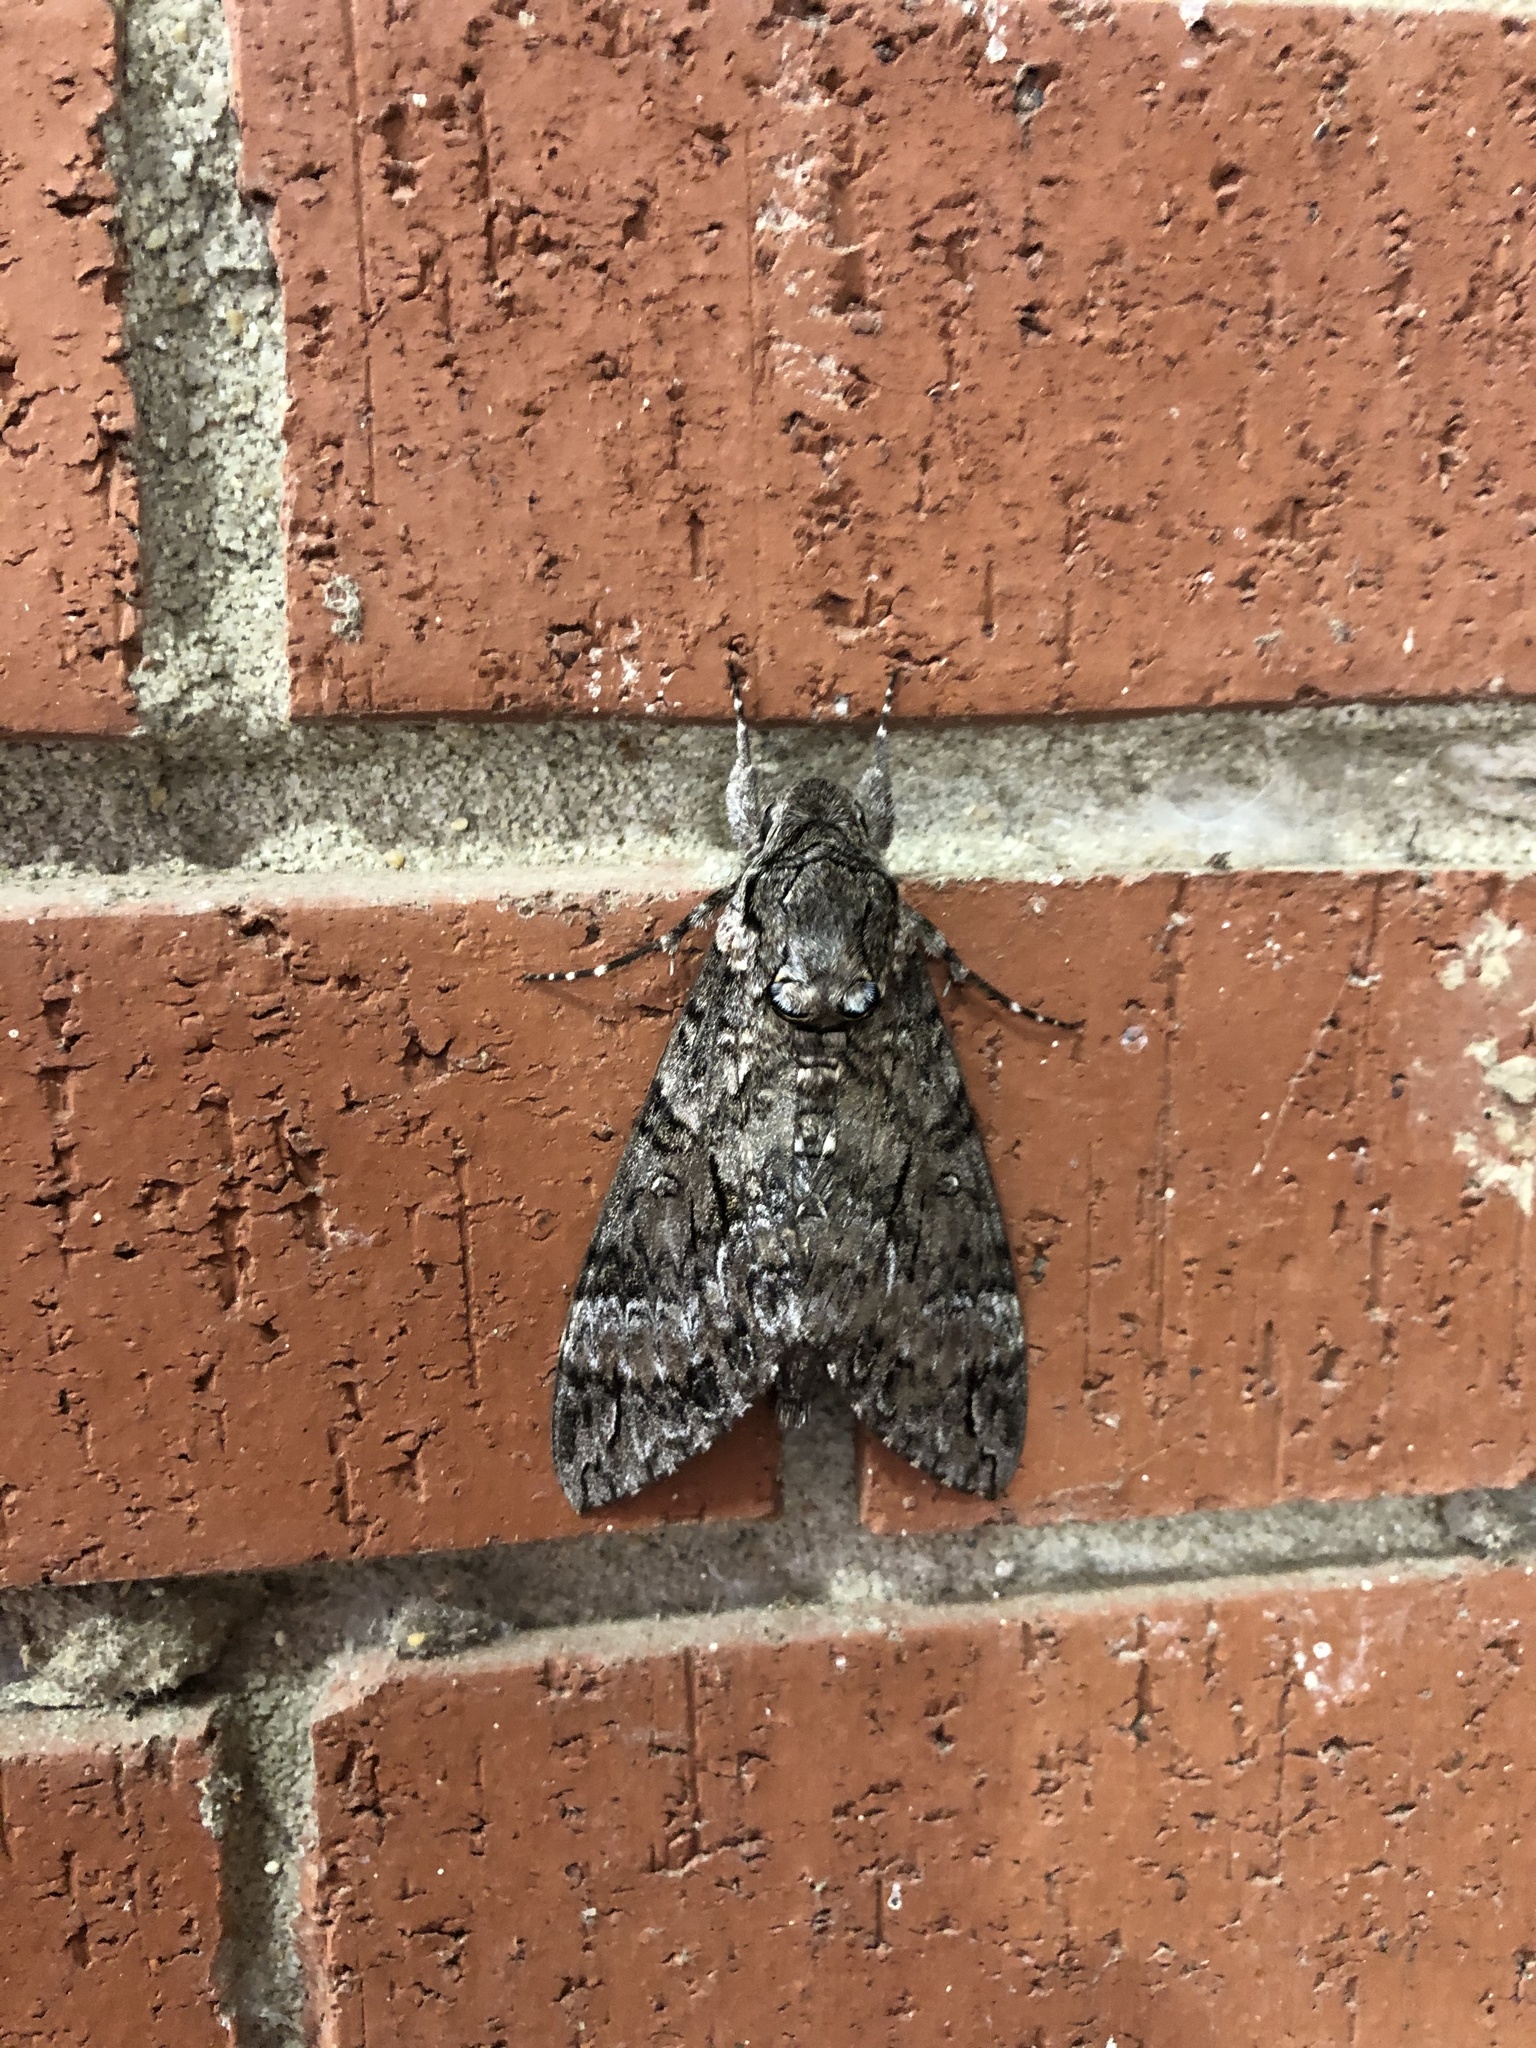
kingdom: Animalia
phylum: Arthropoda
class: Insecta
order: Lepidoptera
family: Sphingidae
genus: Agrius
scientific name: Agrius cingulata
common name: Pink-spotted hawkmoth
